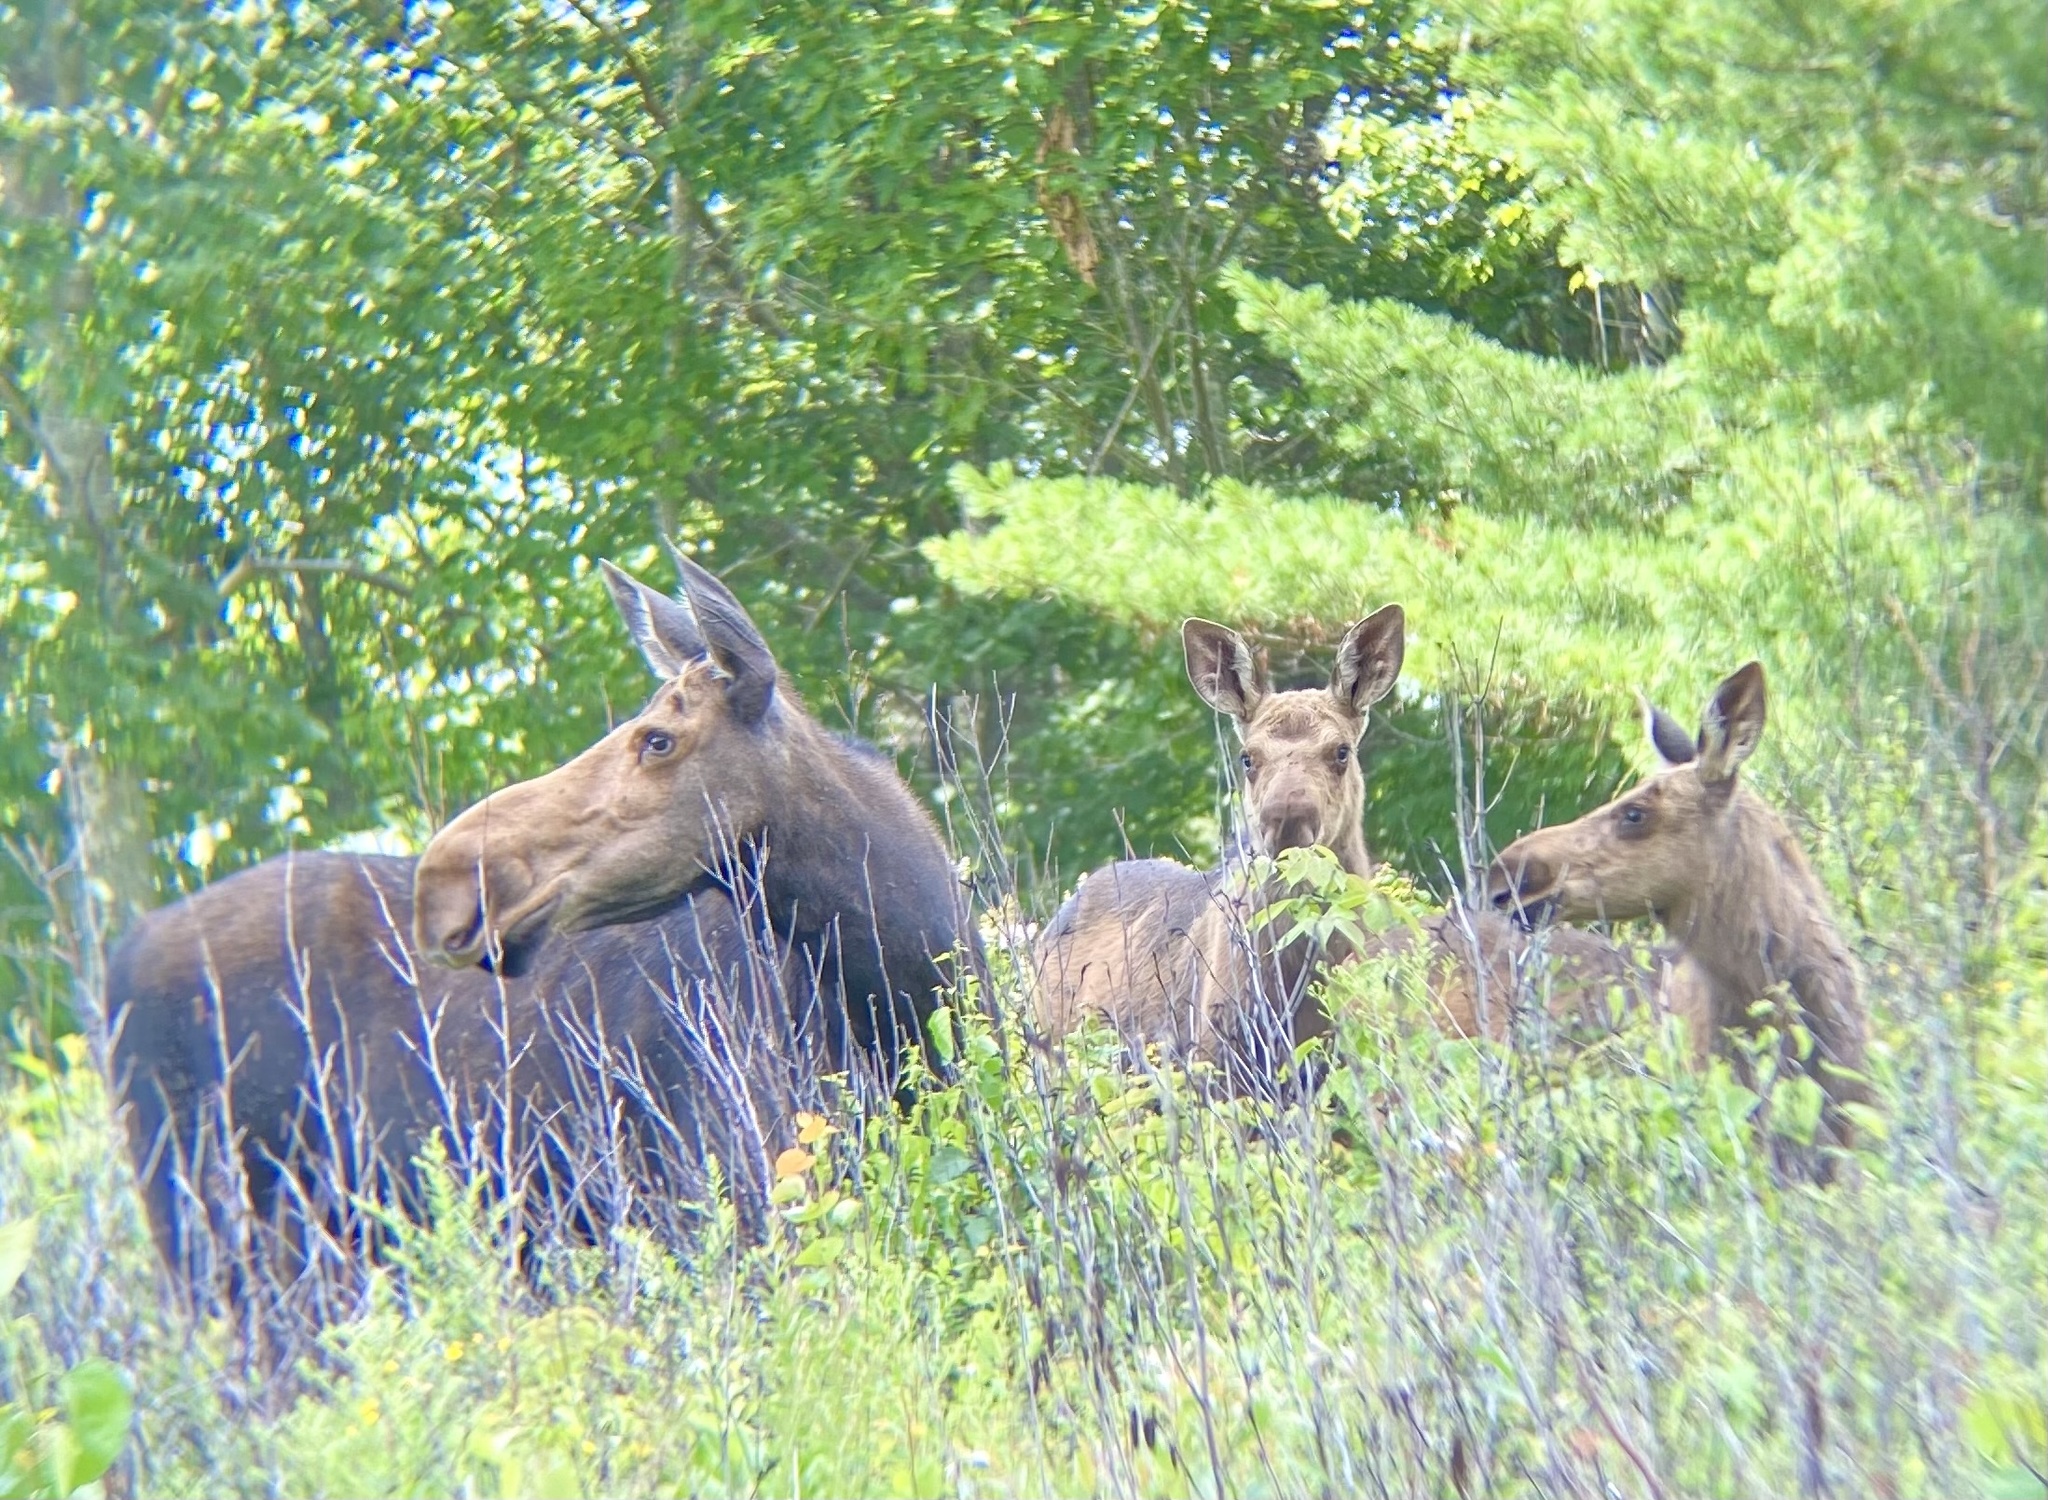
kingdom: Animalia
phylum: Chordata
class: Mammalia
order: Artiodactyla
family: Cervidae
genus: Alces
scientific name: Alces alces
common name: Moose
